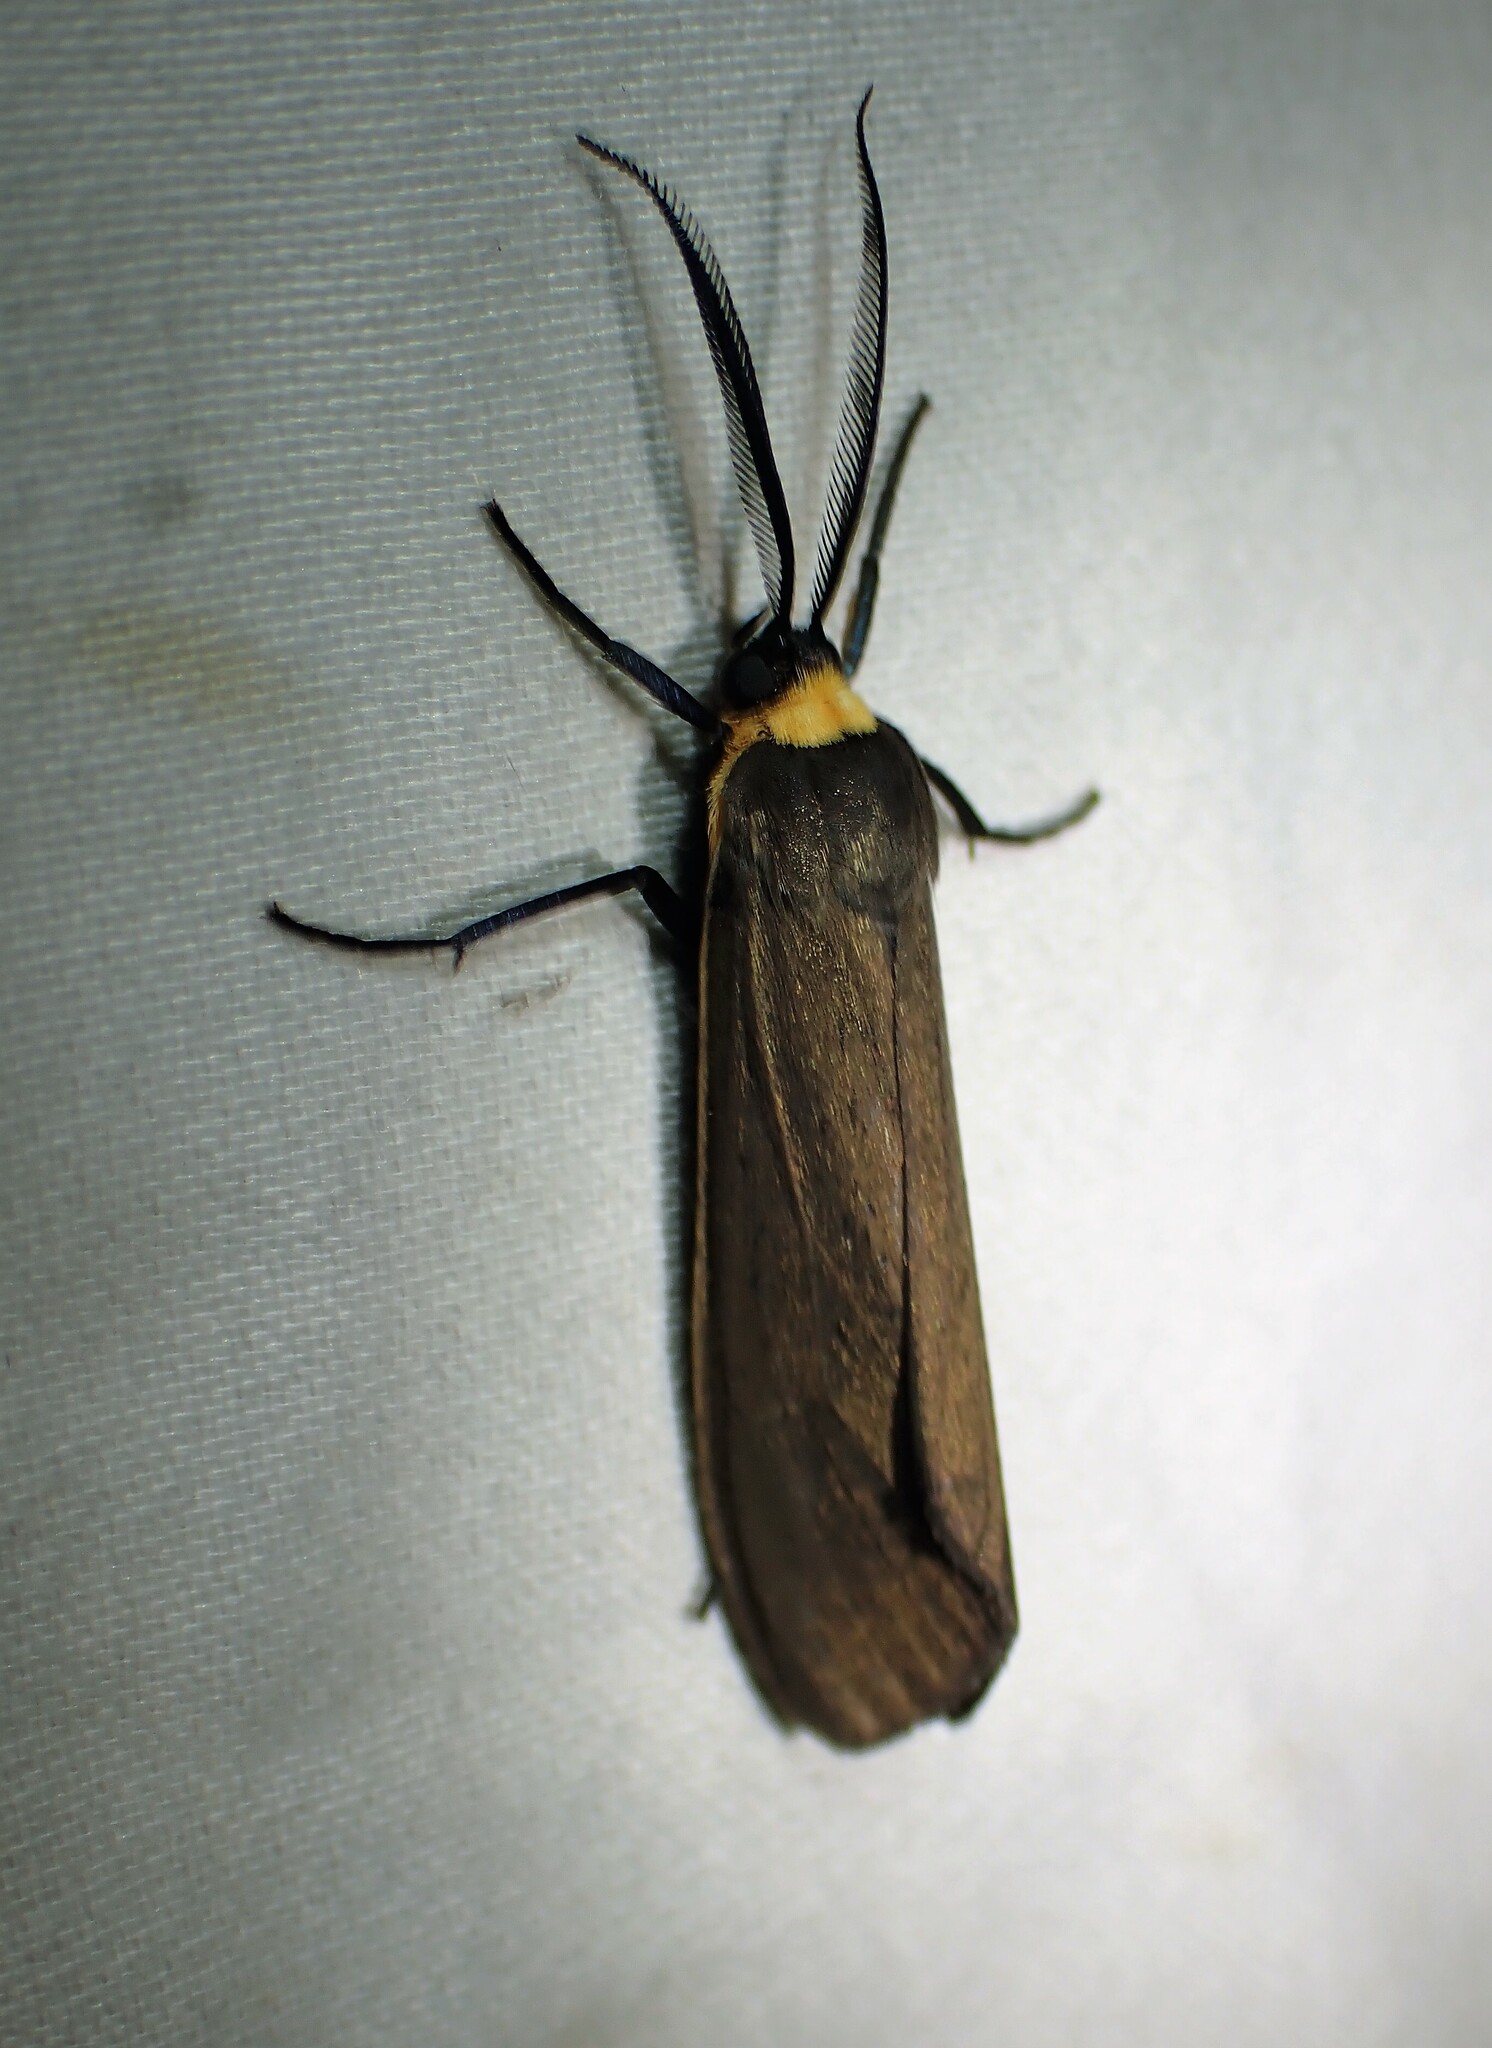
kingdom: Animalia
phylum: Arthropoda
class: Insecta
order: Lepidoptera
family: Erebidae
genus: Cisseps
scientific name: Cisseps fulvicollis
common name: Yellow-collared scape moth
